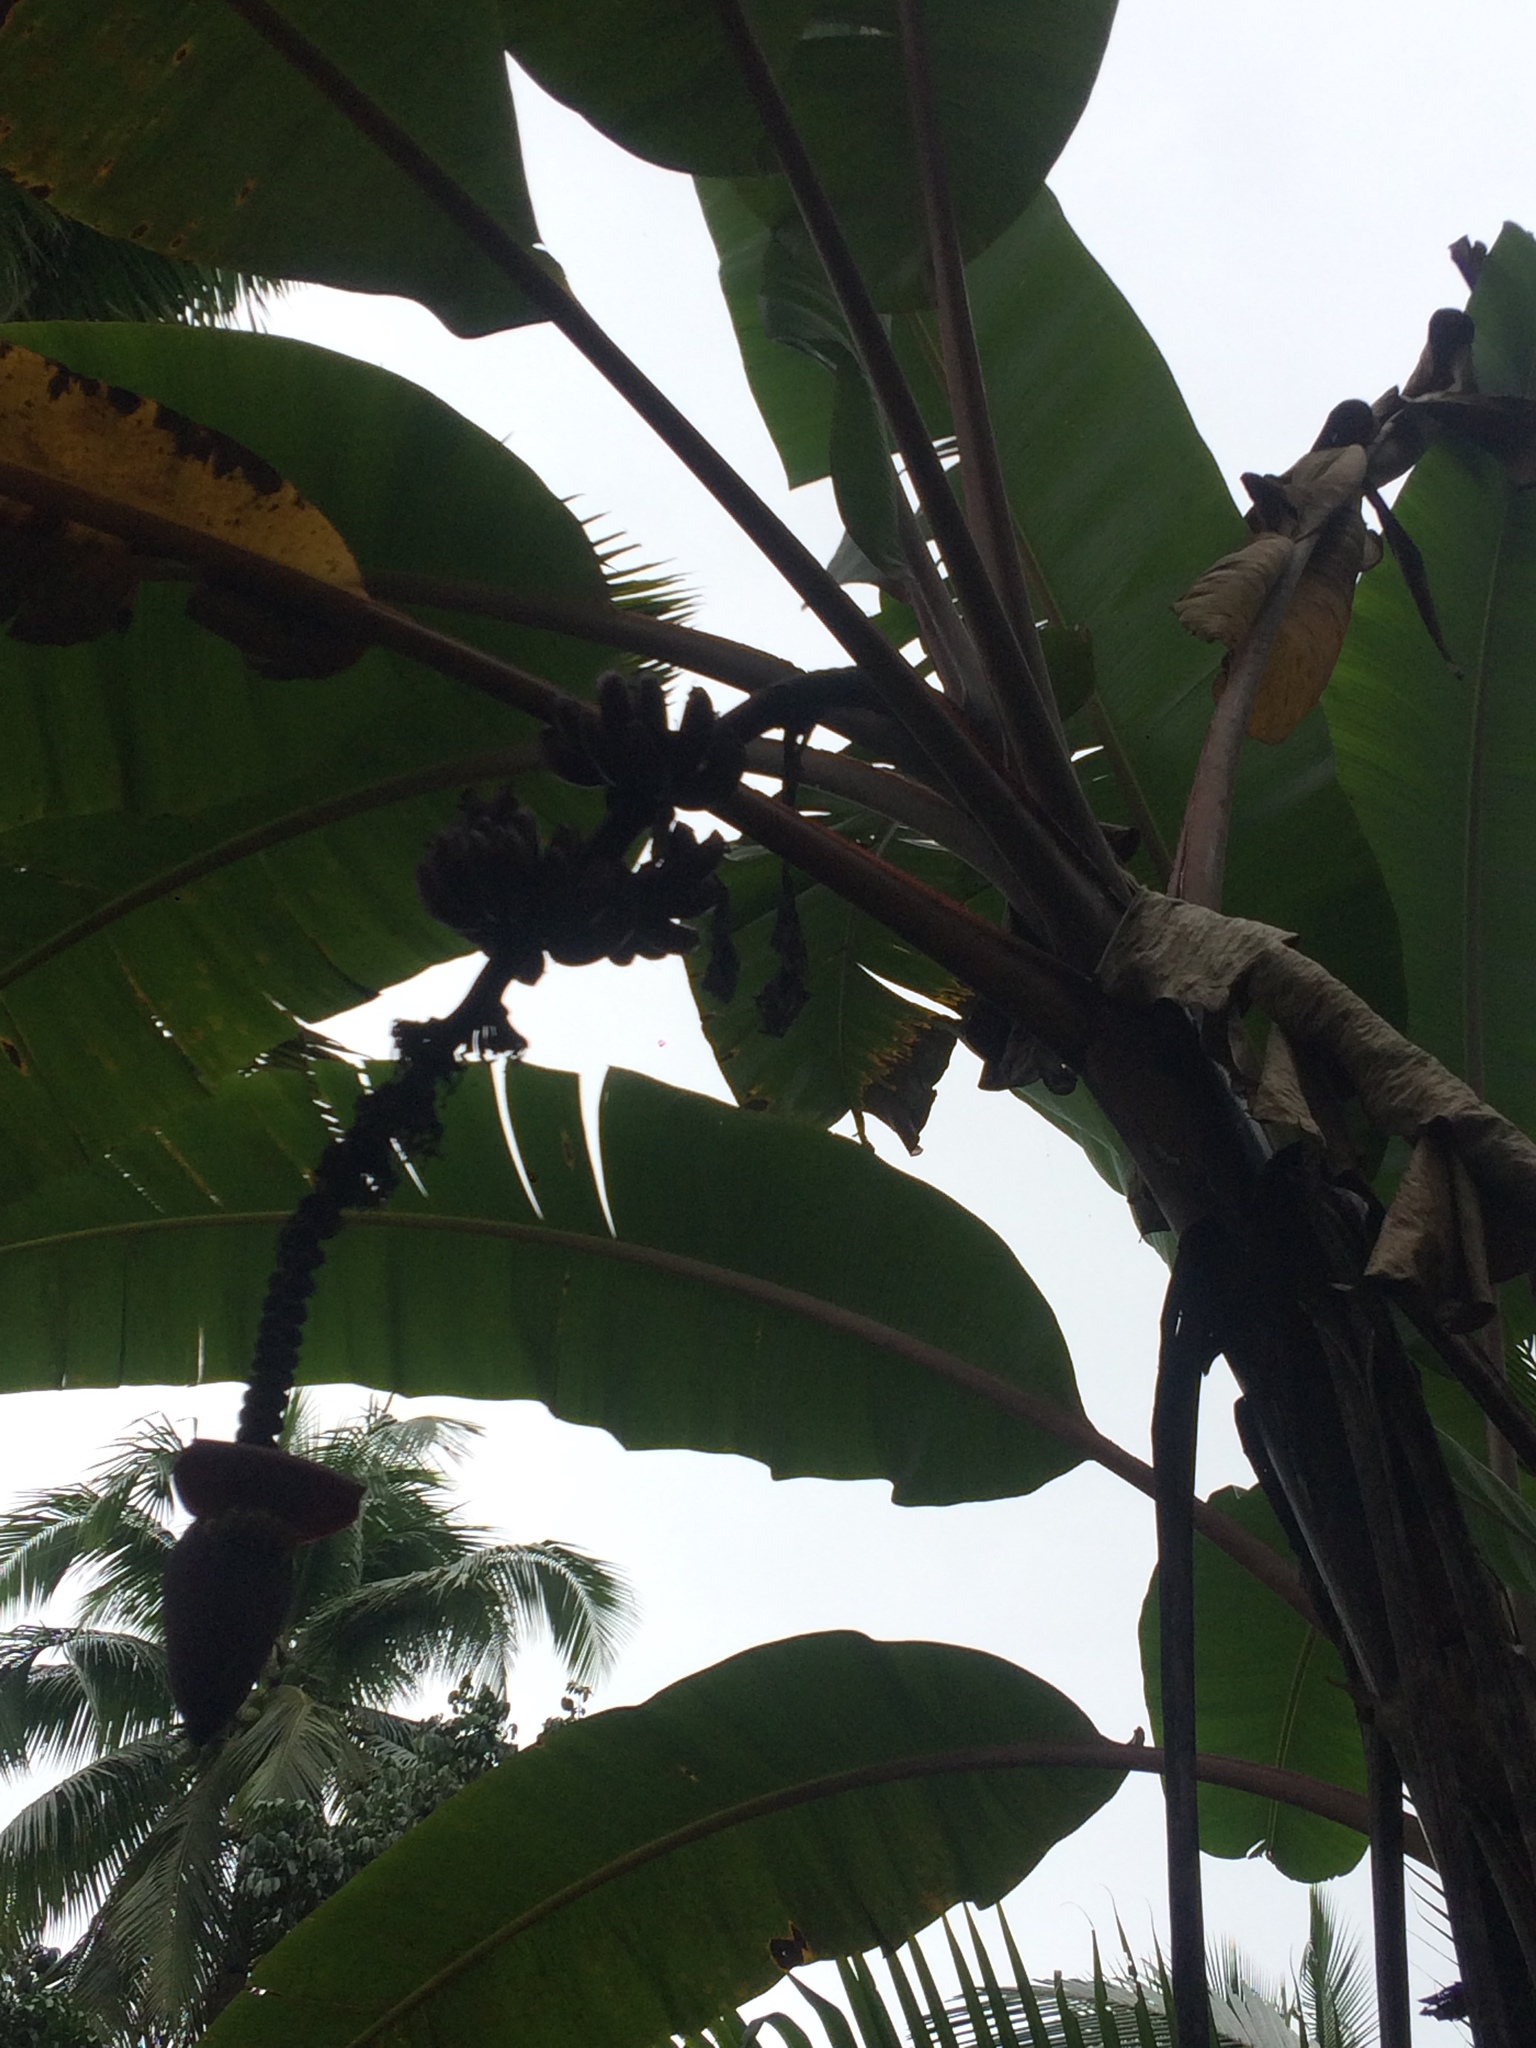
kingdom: Plantae
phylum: Tracheophyta
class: Liliopsida
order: Zingiberales
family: Musaceae
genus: Musa
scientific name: Musa acuminata
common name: Edible banana
